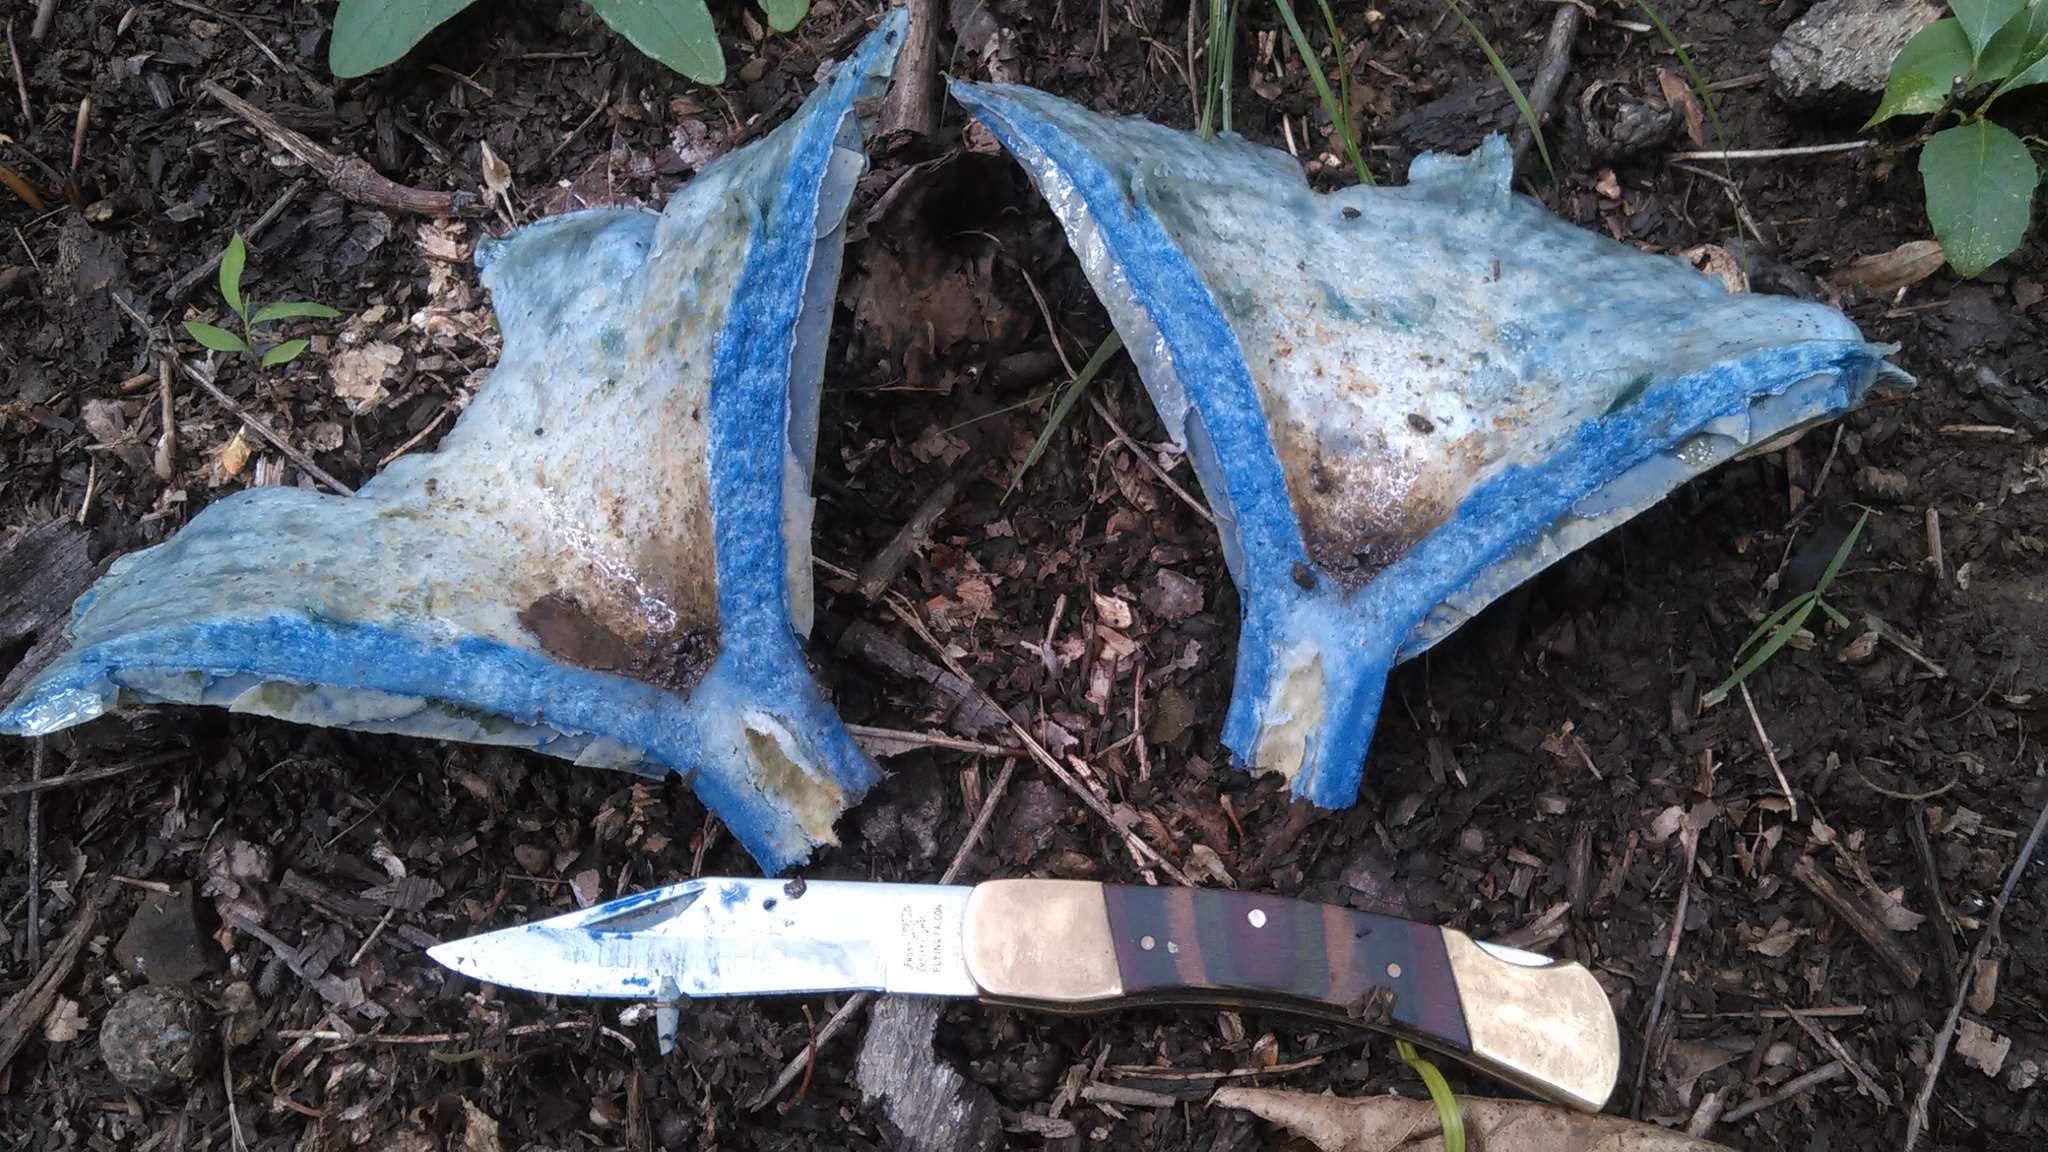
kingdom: Fungi
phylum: Basidiomycota
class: Agaricomycetes
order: Russulales
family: Russulaceae
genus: Lactarius
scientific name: Lactarius indigo
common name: Indigo milk cap
